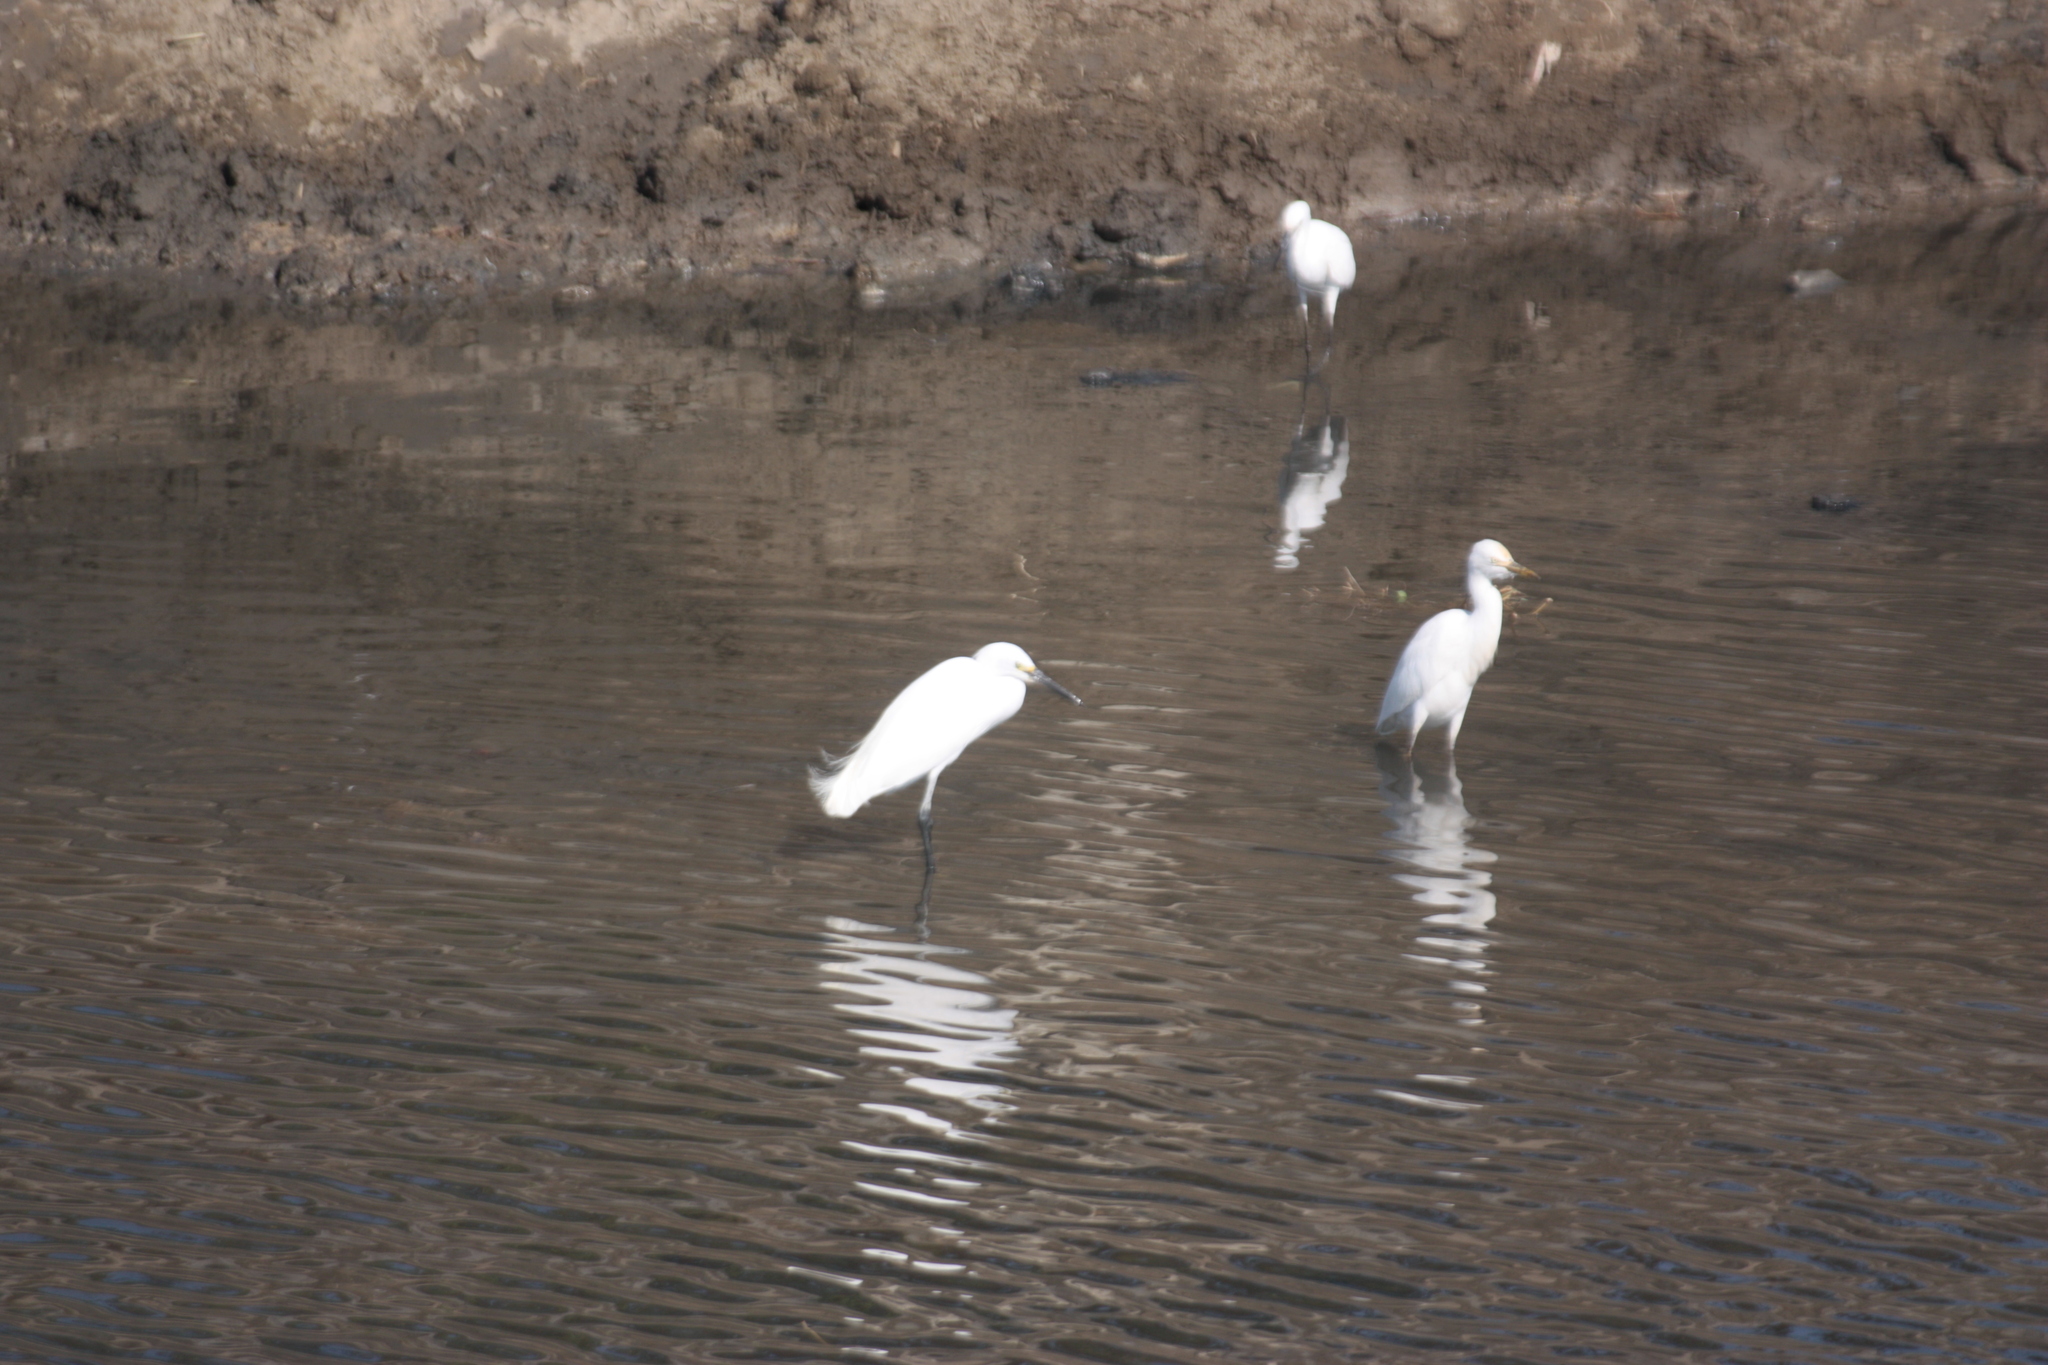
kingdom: Animalia
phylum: Chordata
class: Aves
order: Pelecaniformes
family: Ardeidae
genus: Egretta
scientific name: Egretta garzetta
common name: Little egret
